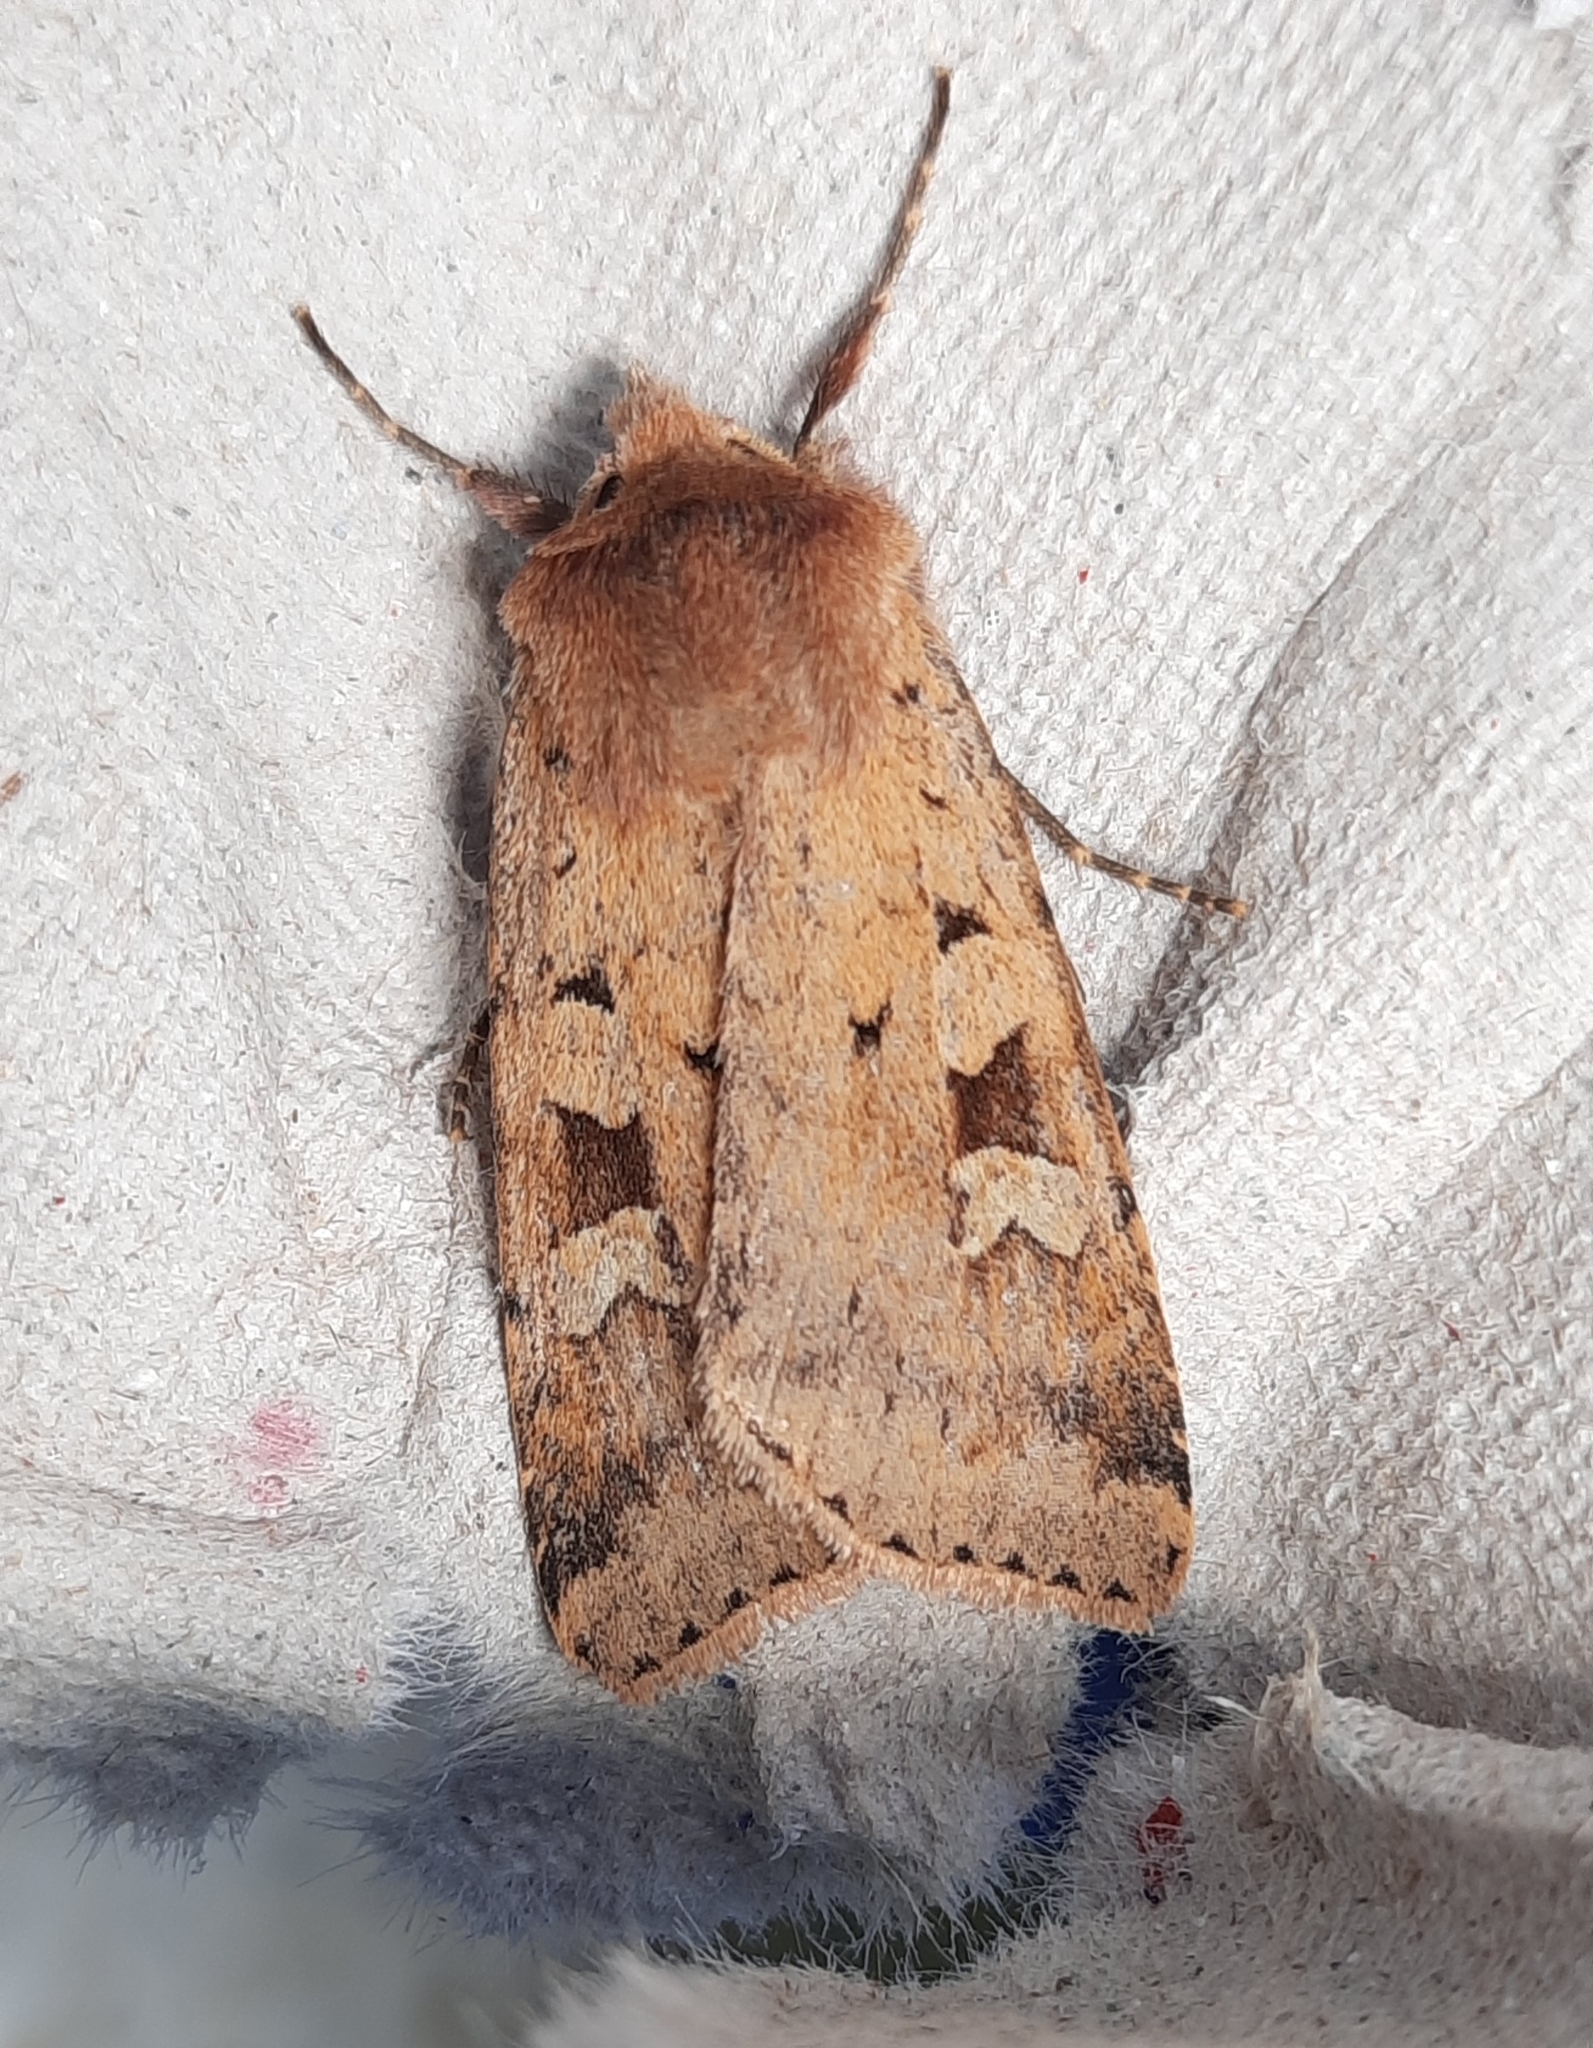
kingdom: Animalia
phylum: Arthropoda
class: Insecta
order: Lepidoptera
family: Noctuidae
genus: Diarsia
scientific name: Diarsia mendica
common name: Ingrailed clay
